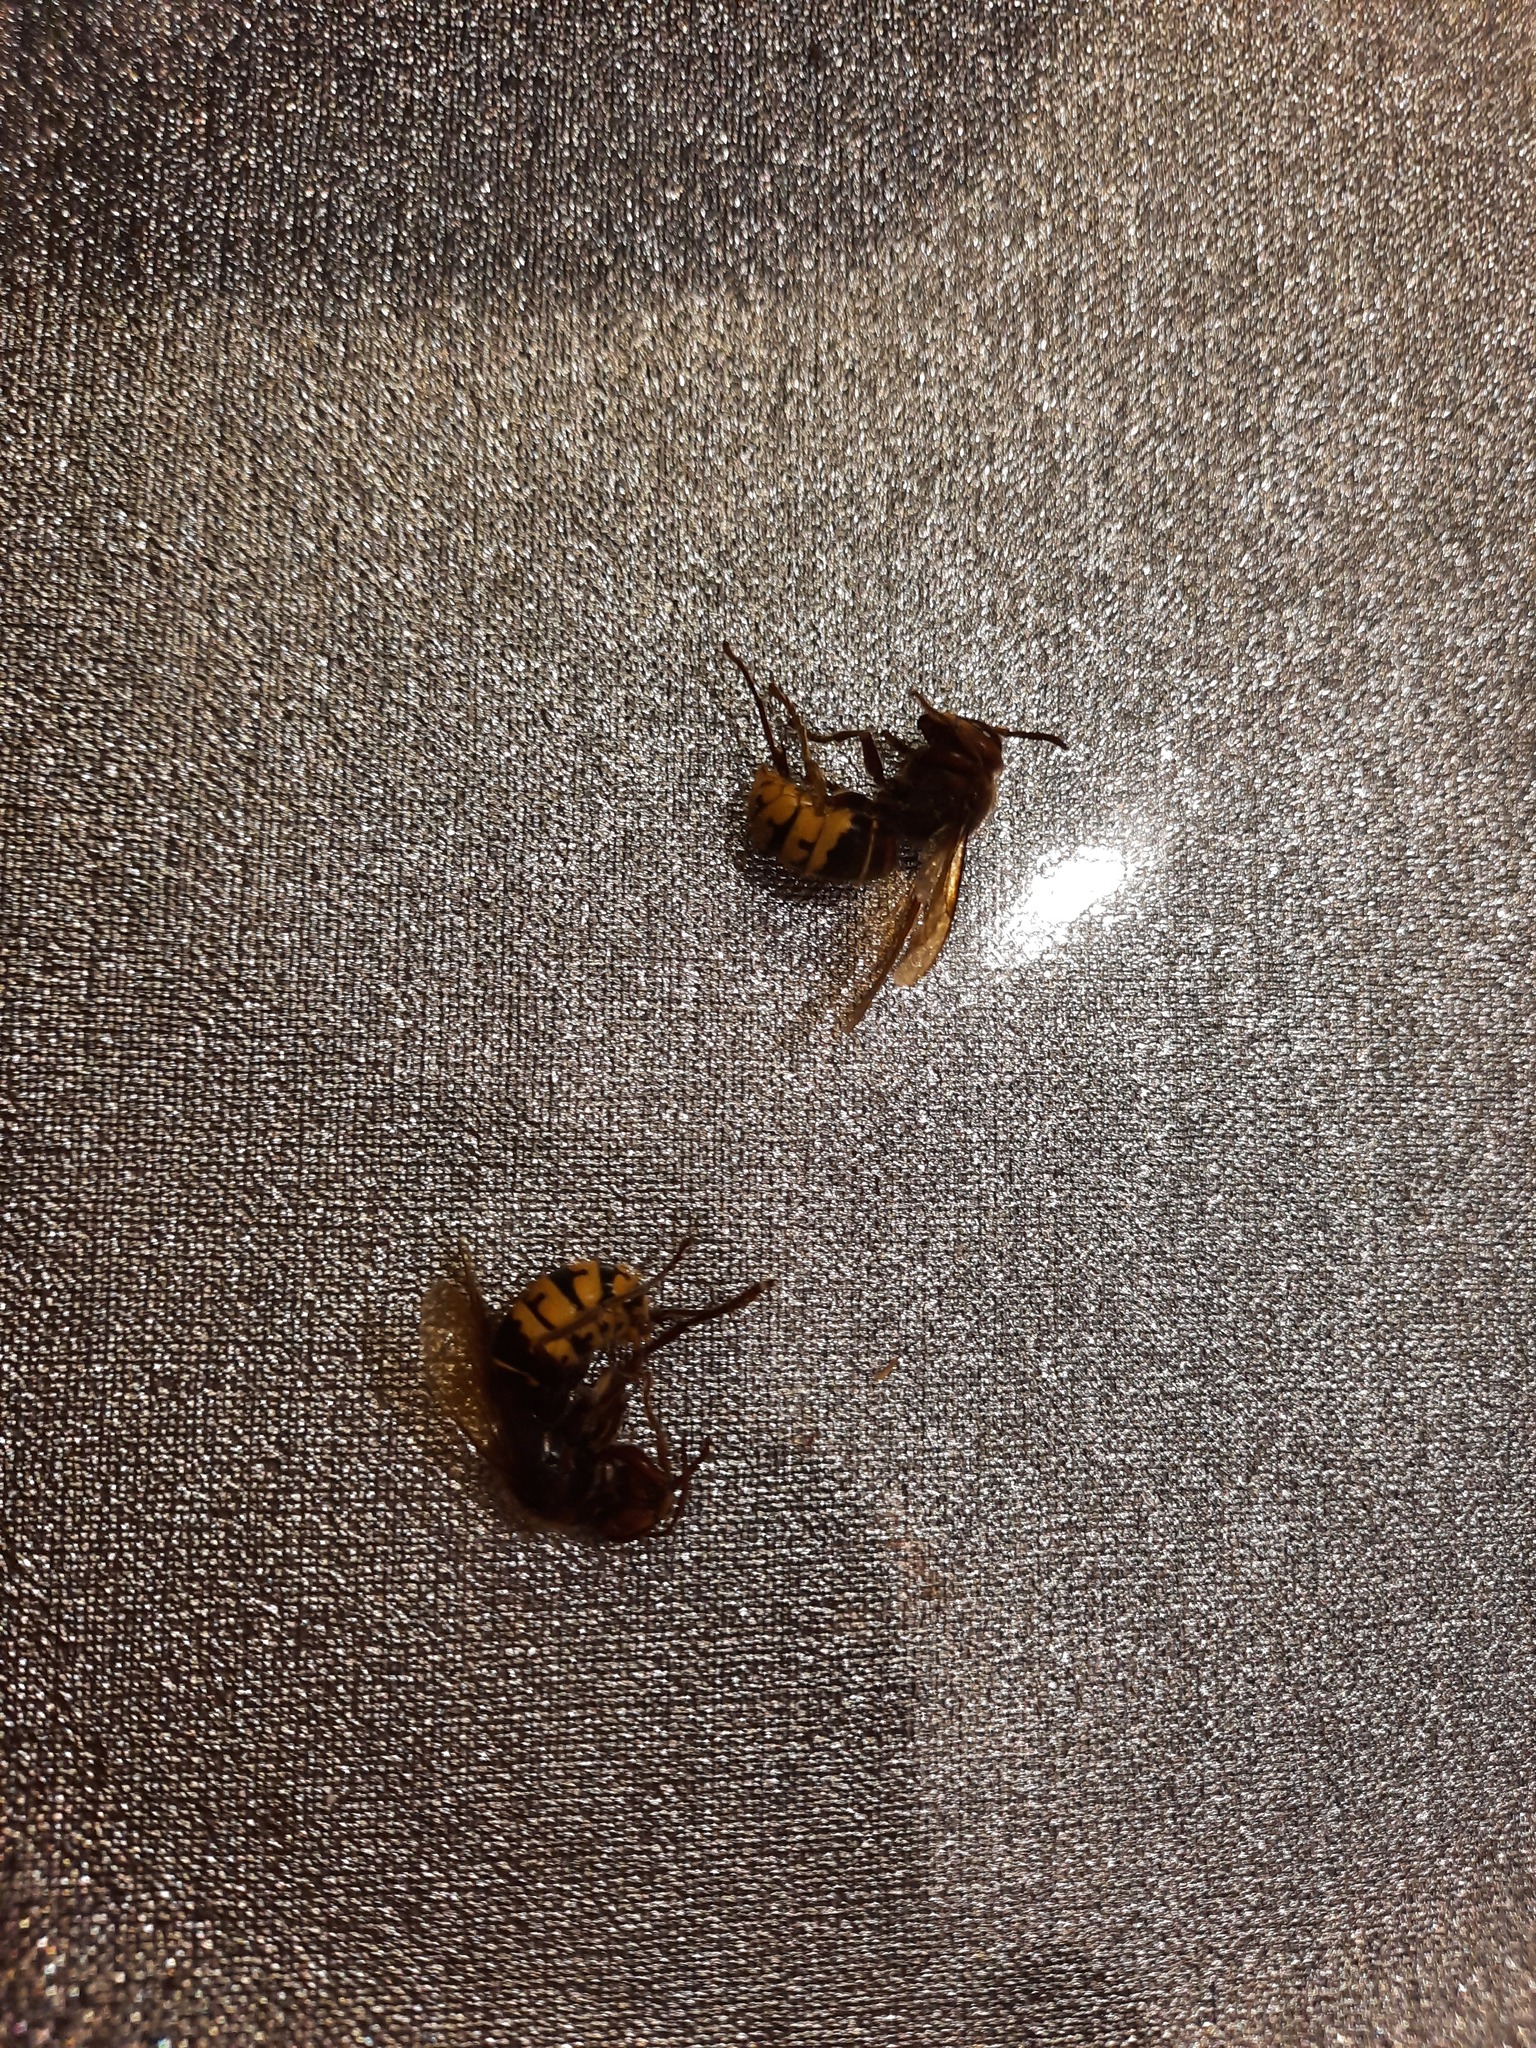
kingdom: Animalia
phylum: Arthropoda
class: Insecta
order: Hymenoptera
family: Vespidae
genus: Vespa
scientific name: Vespa crabro
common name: Hornet
